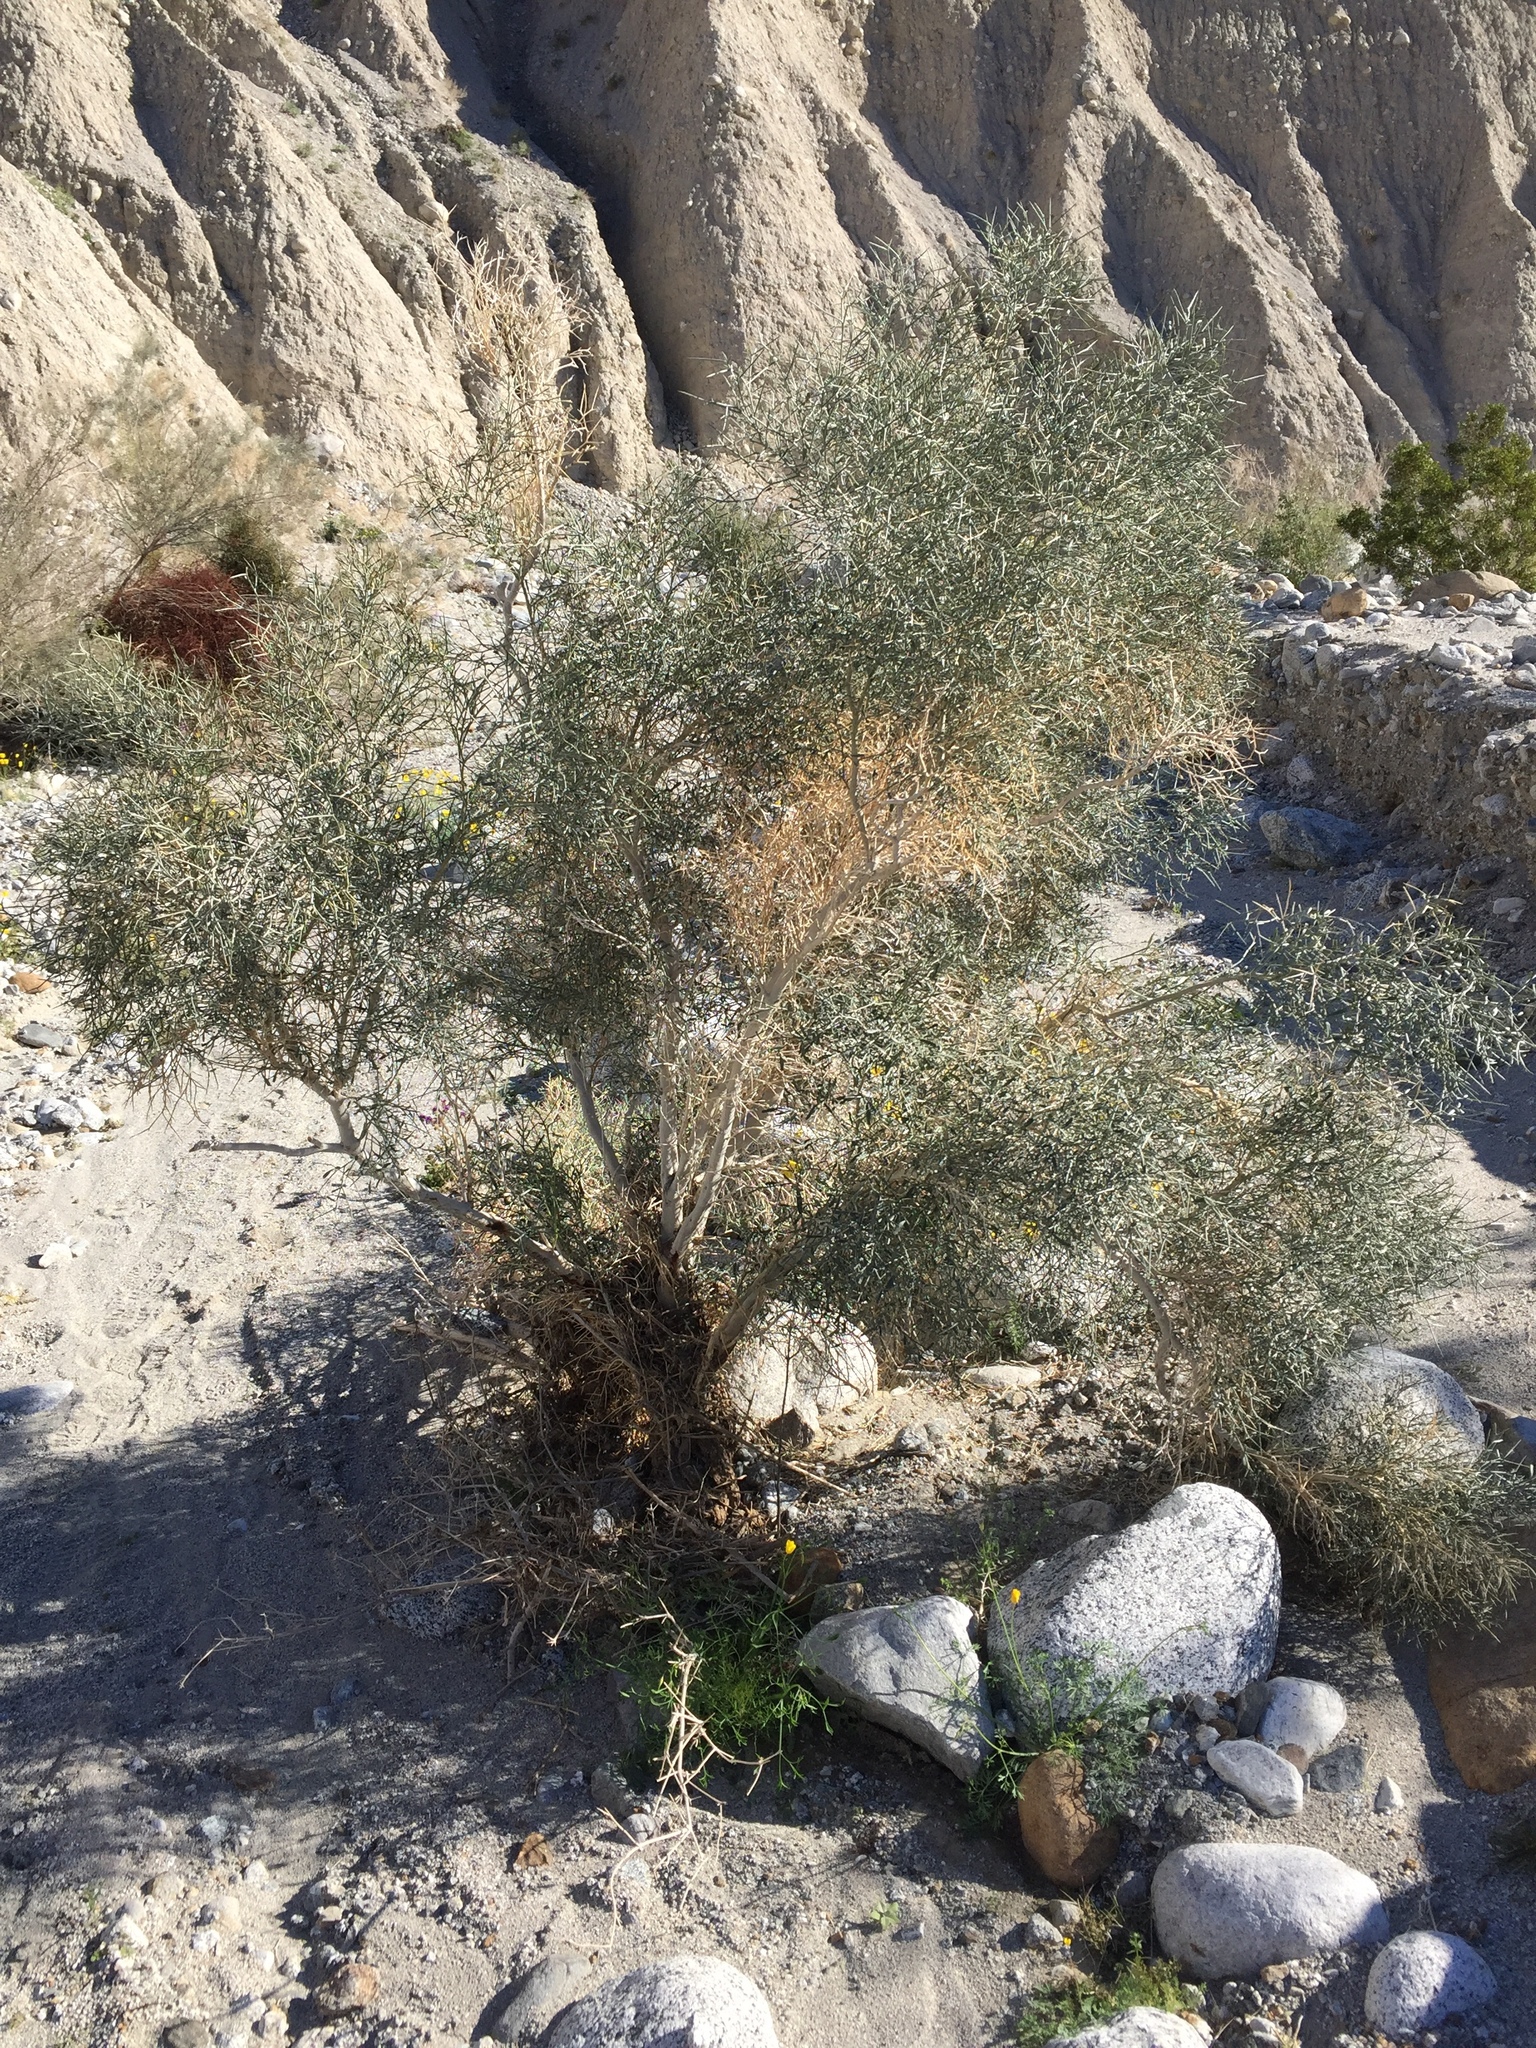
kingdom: Plantae
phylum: Tracheophyta
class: Magnoliopsida
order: Fabales
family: Fabaceae
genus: Psorothamnus
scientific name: Psorothamnus spinosus
